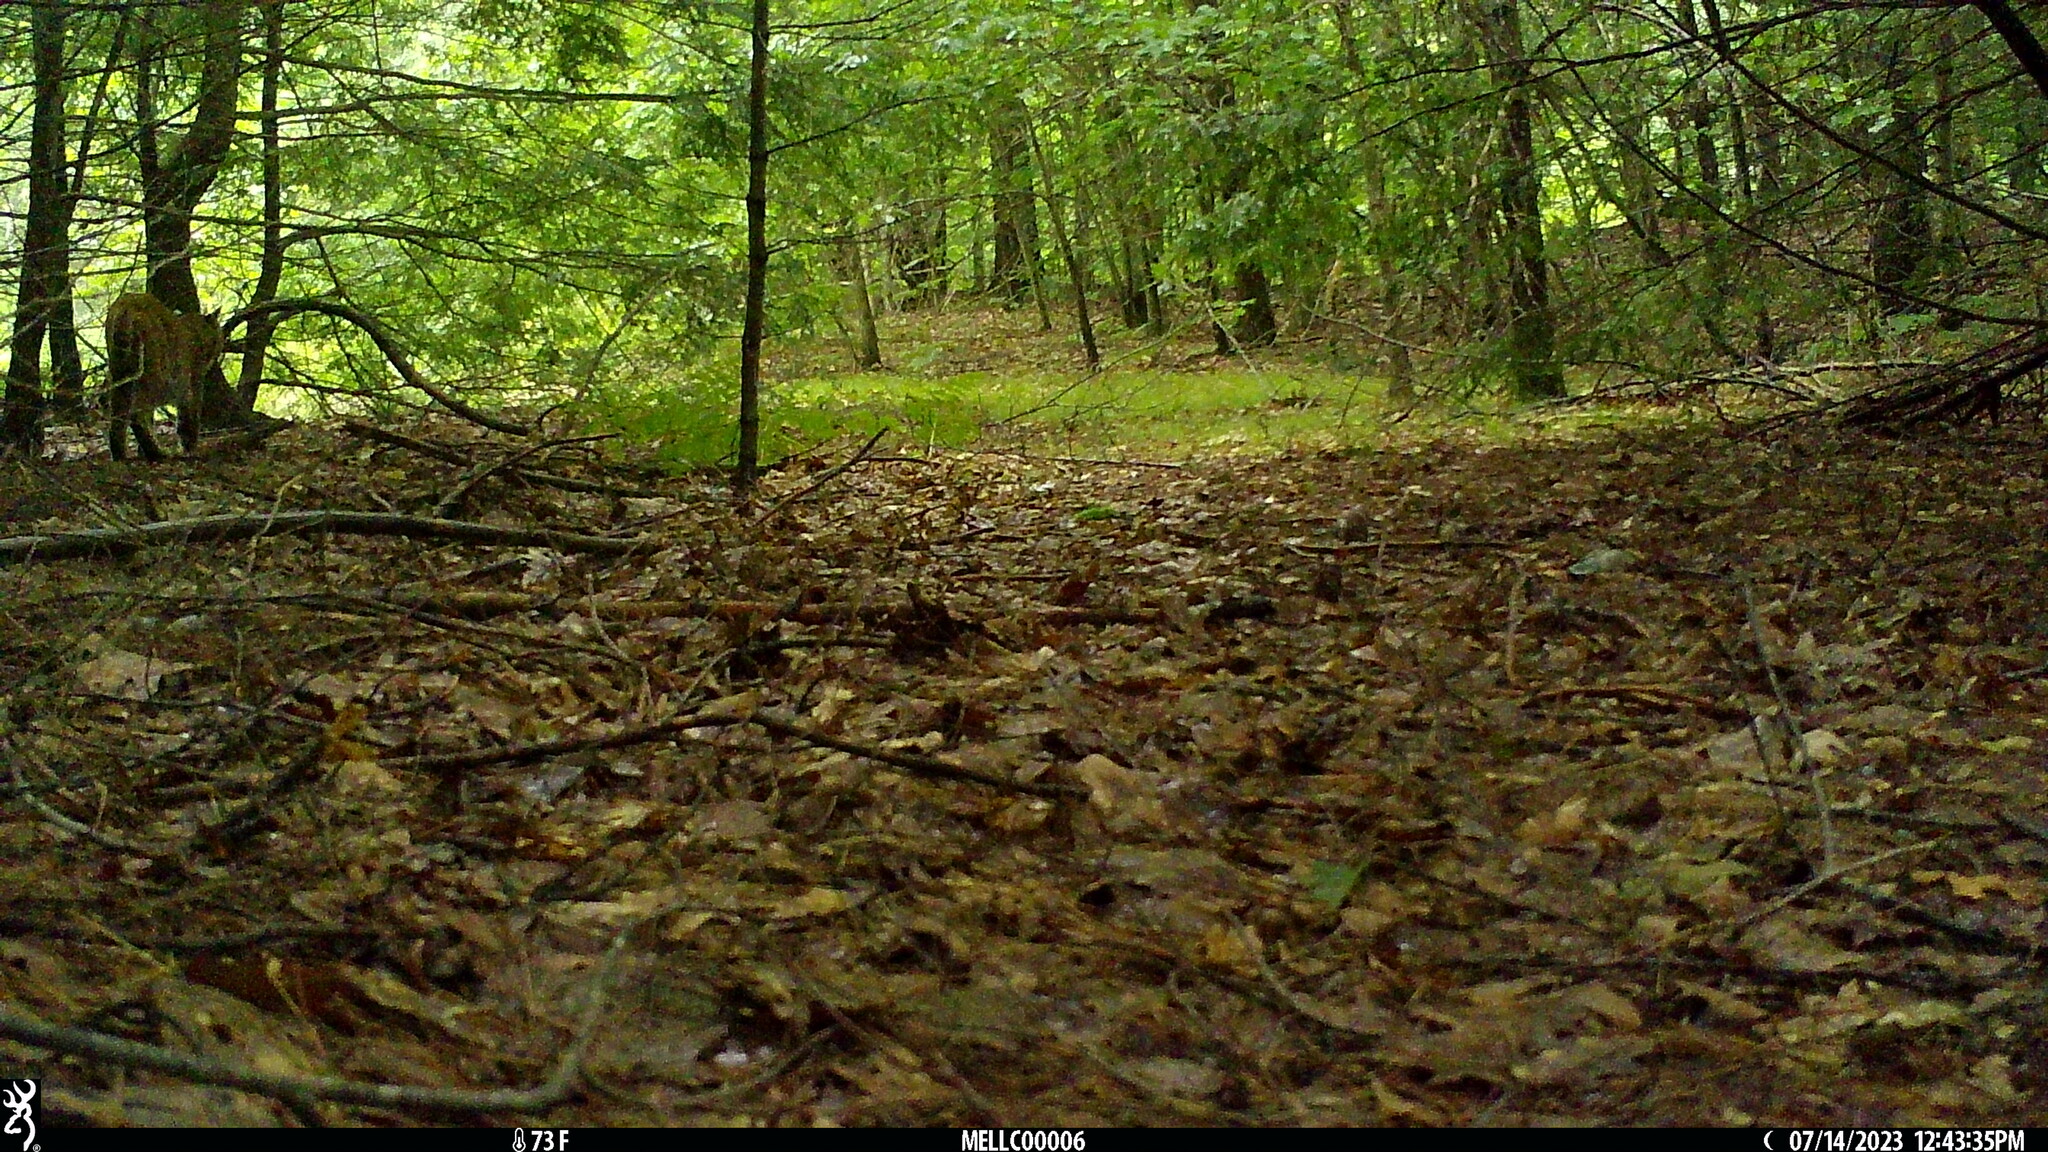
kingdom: Animalia
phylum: Chordata
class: Mammalia
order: Carnivora
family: Felidae
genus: Lynx
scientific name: Lynx rufus
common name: Bobcat
